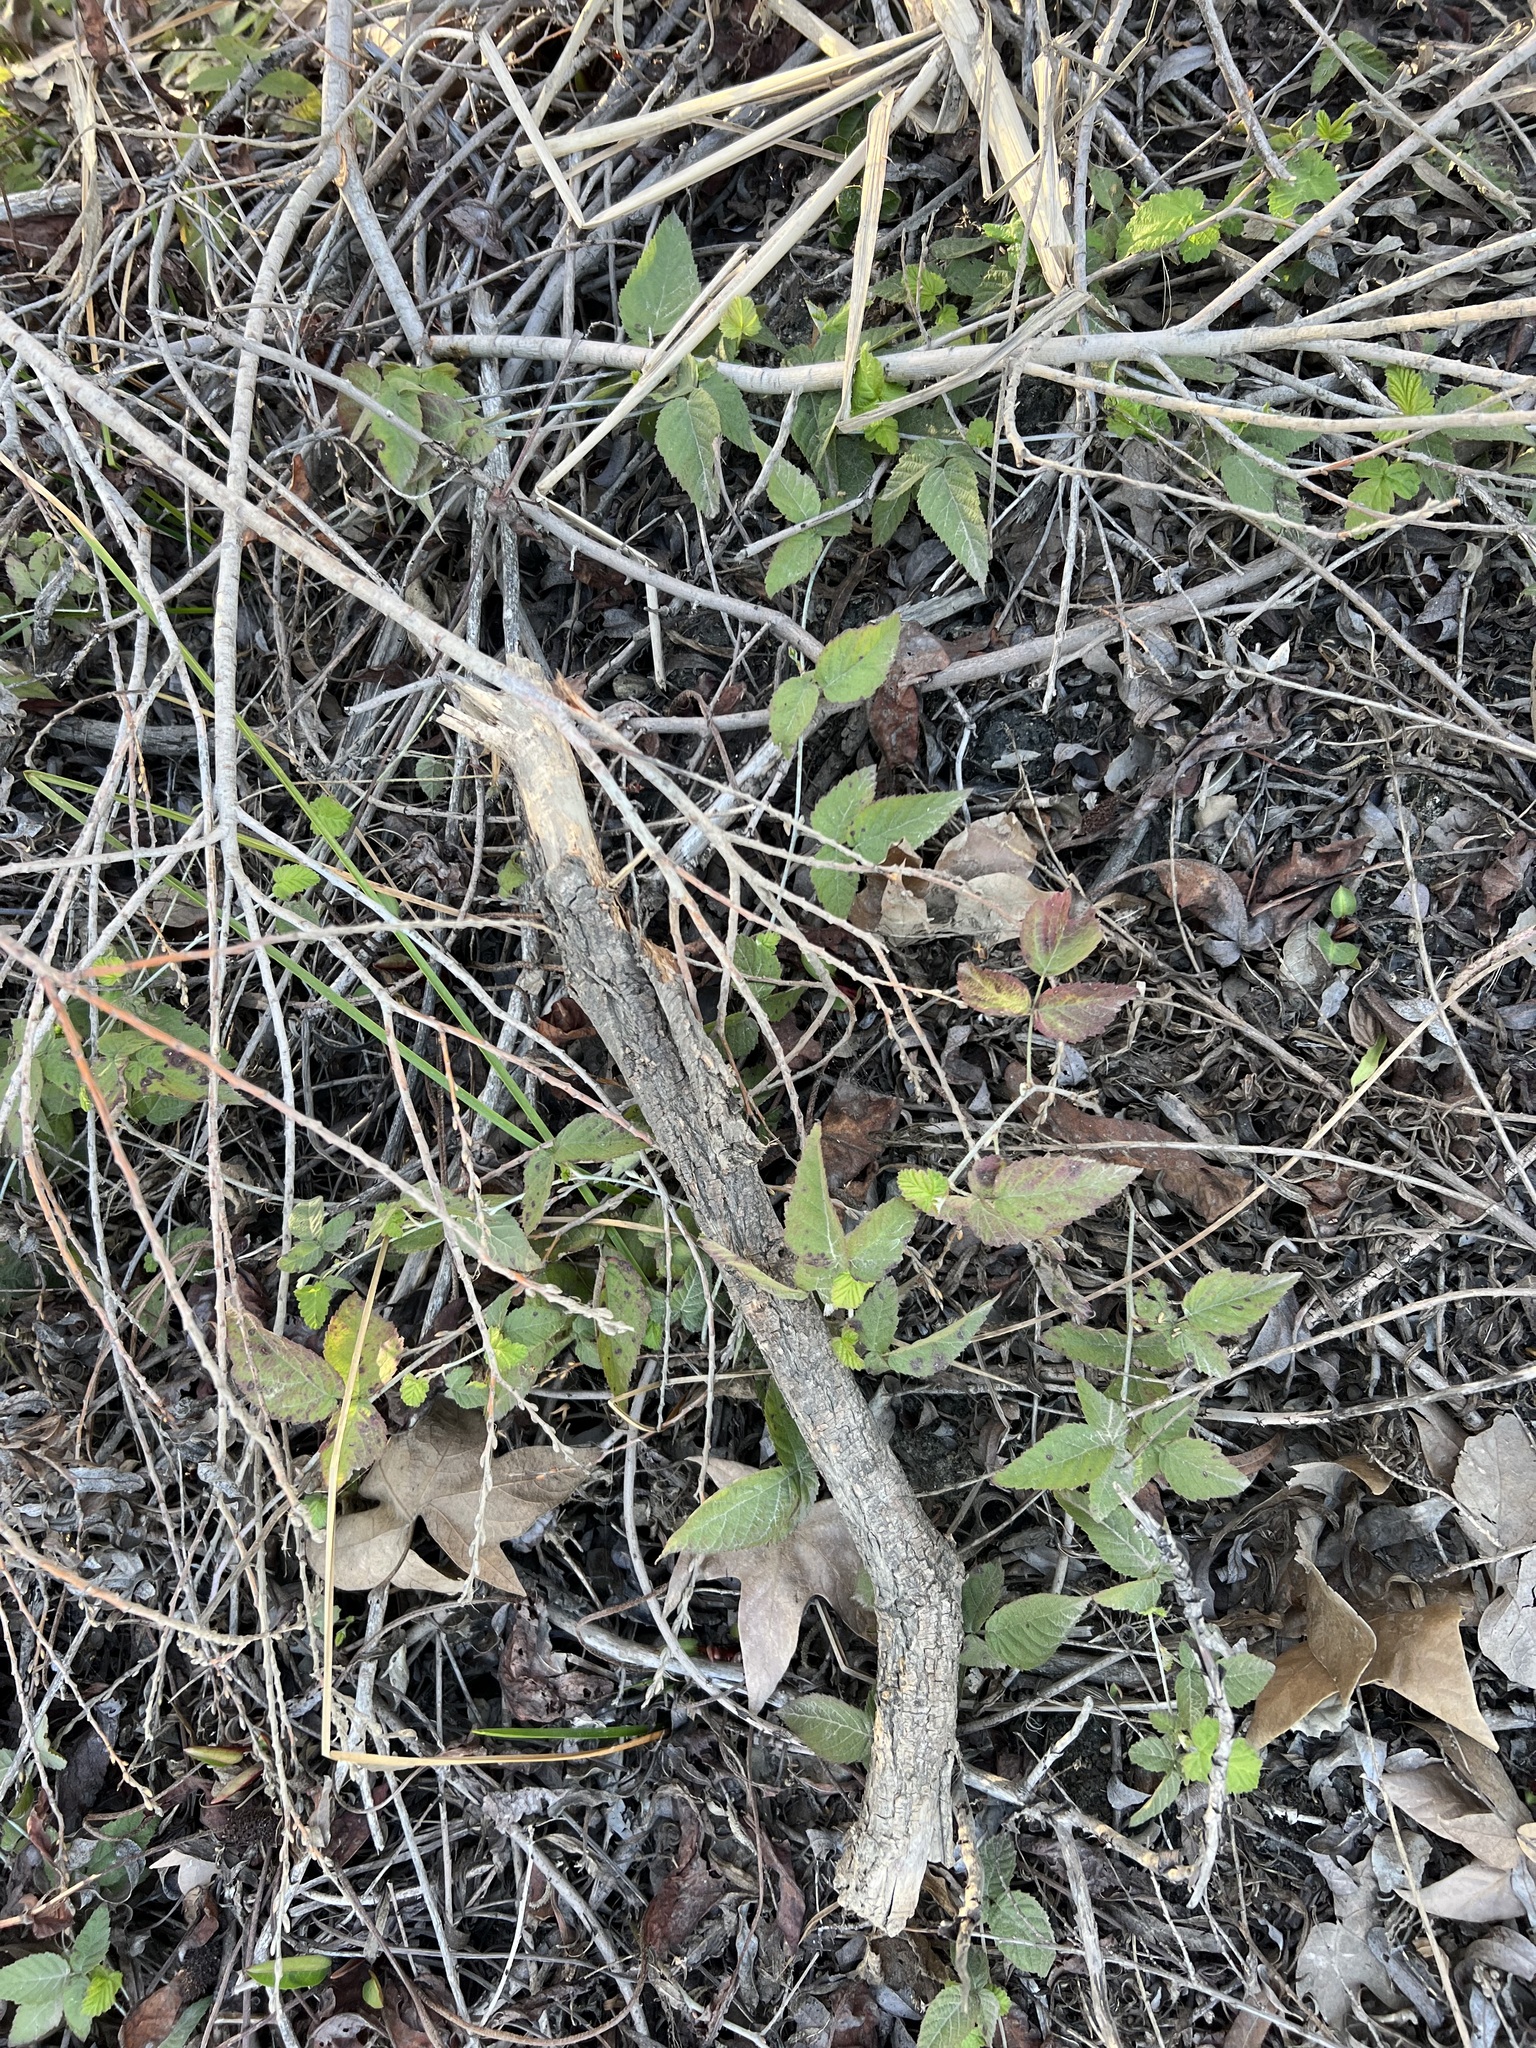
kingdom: Plantae
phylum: Tracheophyta
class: Magnoliopsida
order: Rosales
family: Rosaceae
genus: Rubus
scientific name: Rubus ursinus
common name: Pacific blackberry
